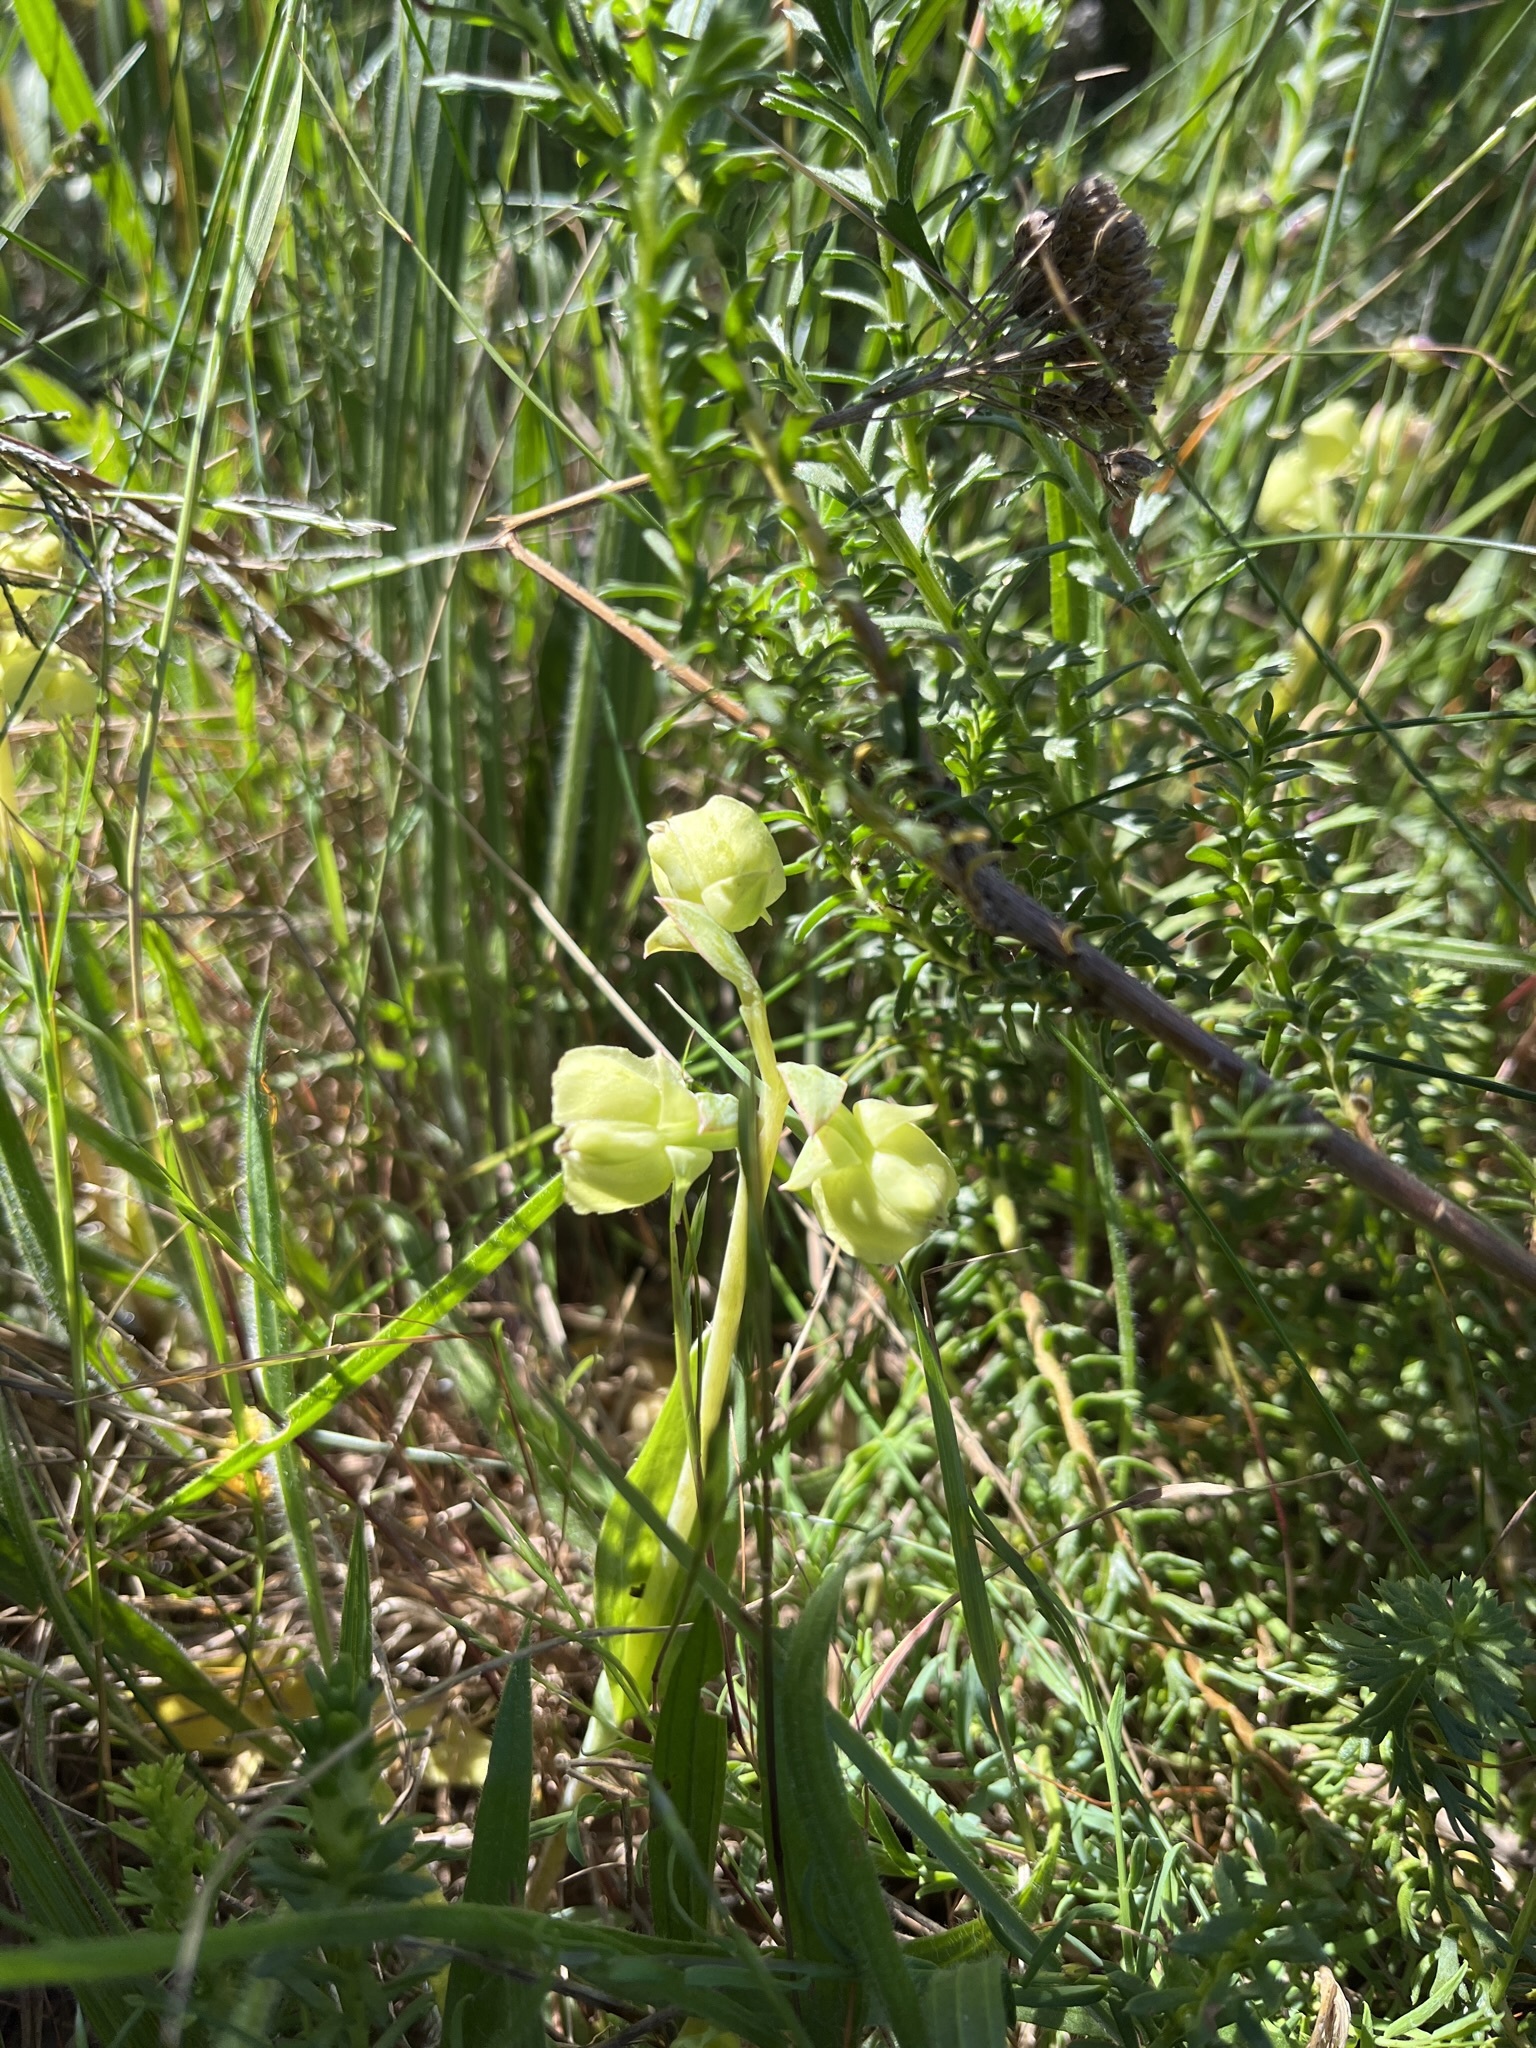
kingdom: Plantae
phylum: Tracheophyta
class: Liliopsida
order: Asparagales
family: Orchidaceae
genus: Pterygodium
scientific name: Pterygodium catholicum
